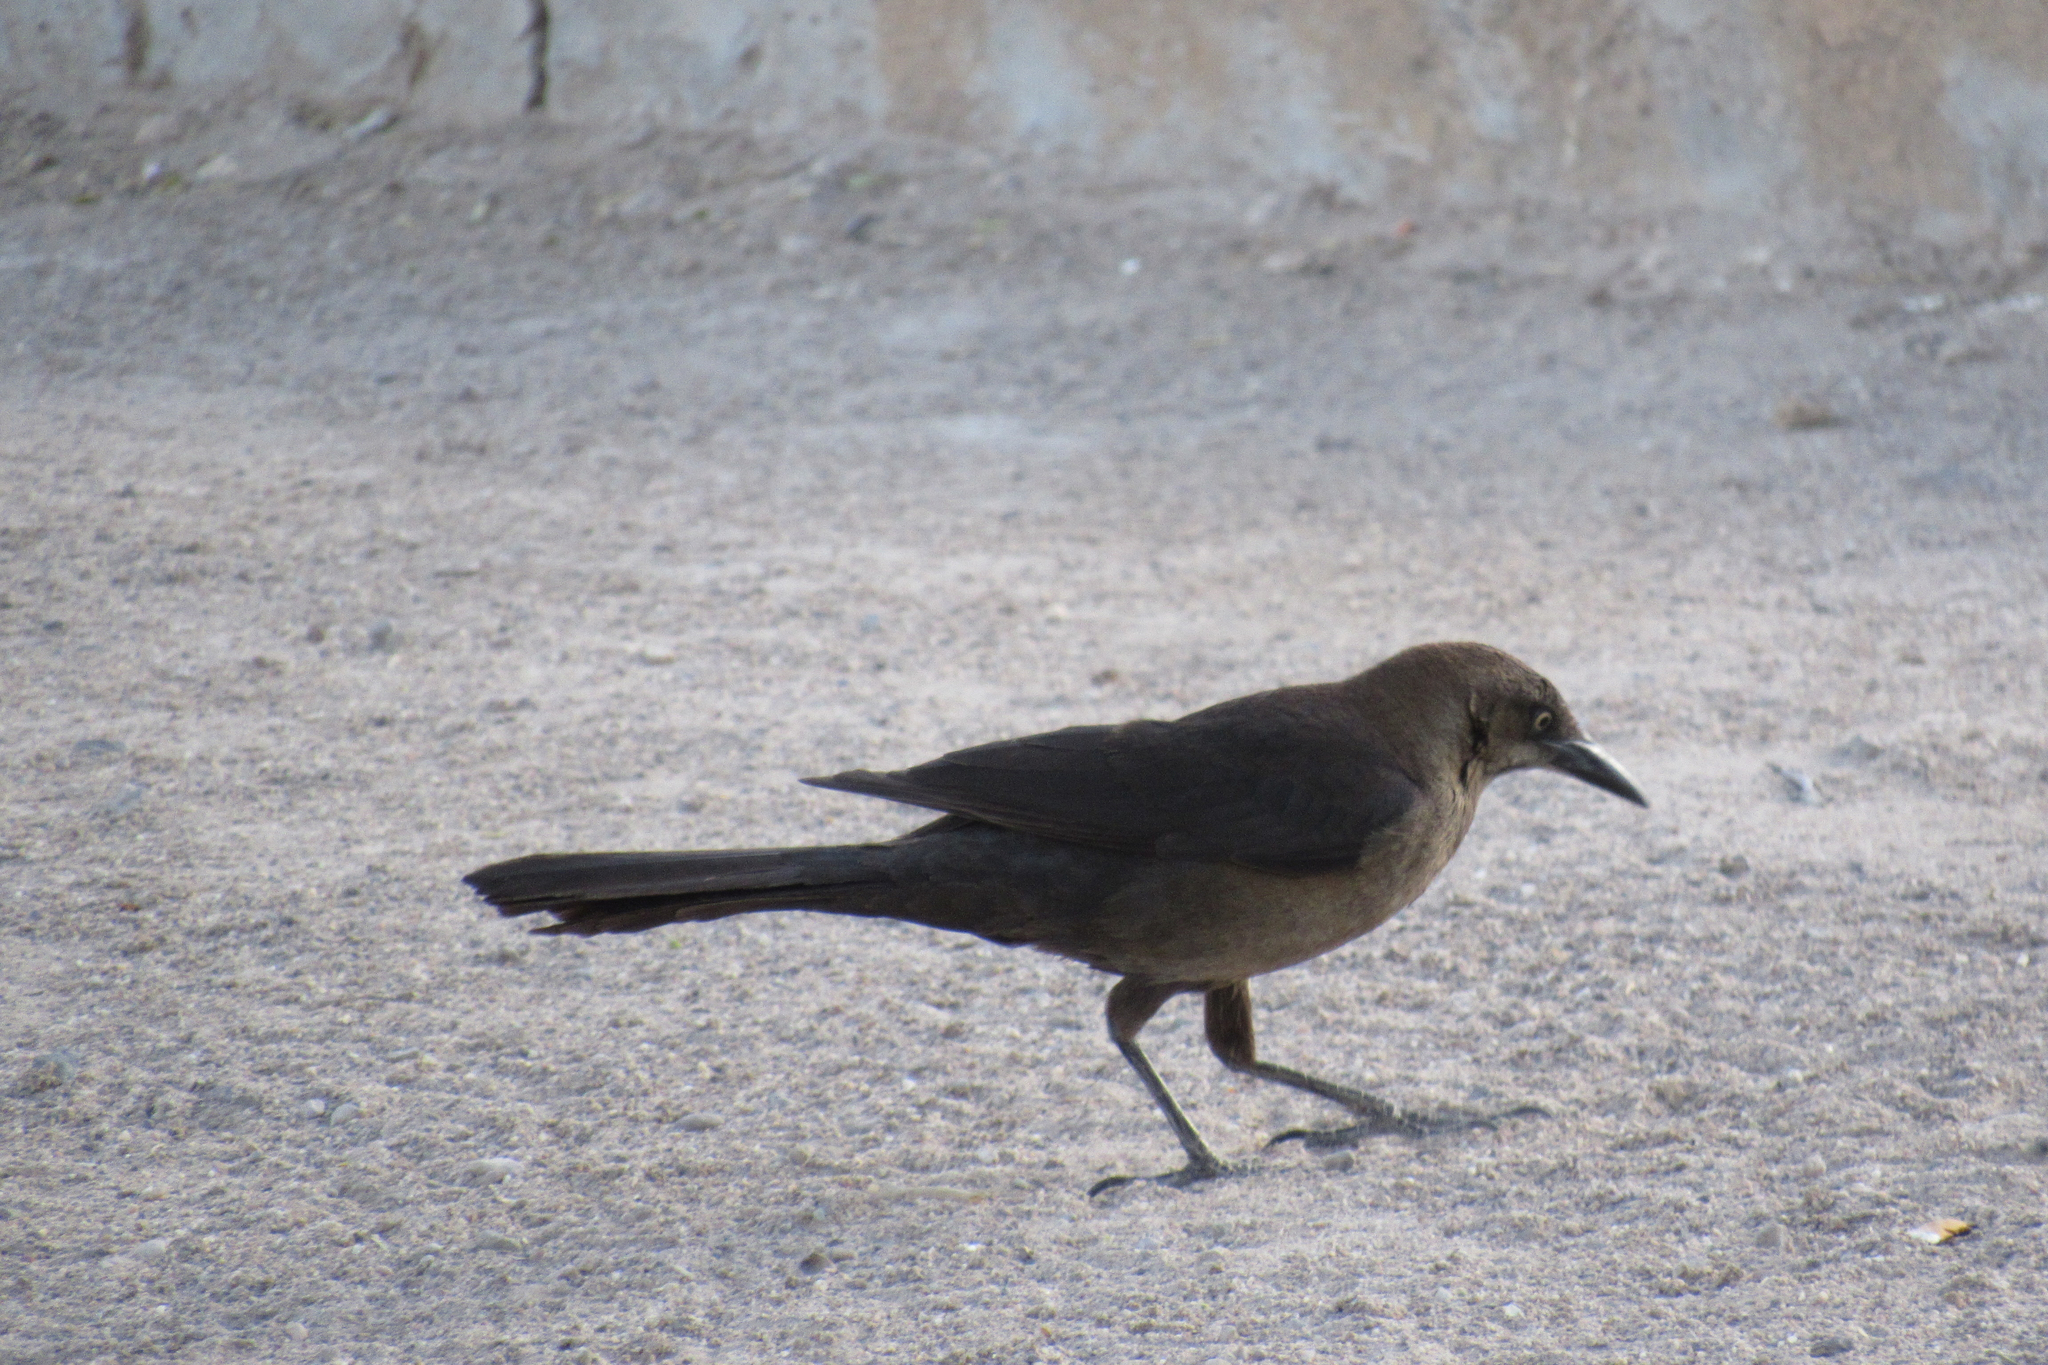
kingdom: Animalia
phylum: Chordata
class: Aves
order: Passeriformes
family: Icteridae
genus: Quiscalus
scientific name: Quiscalus mexicanus
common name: Great-tailed grackle
